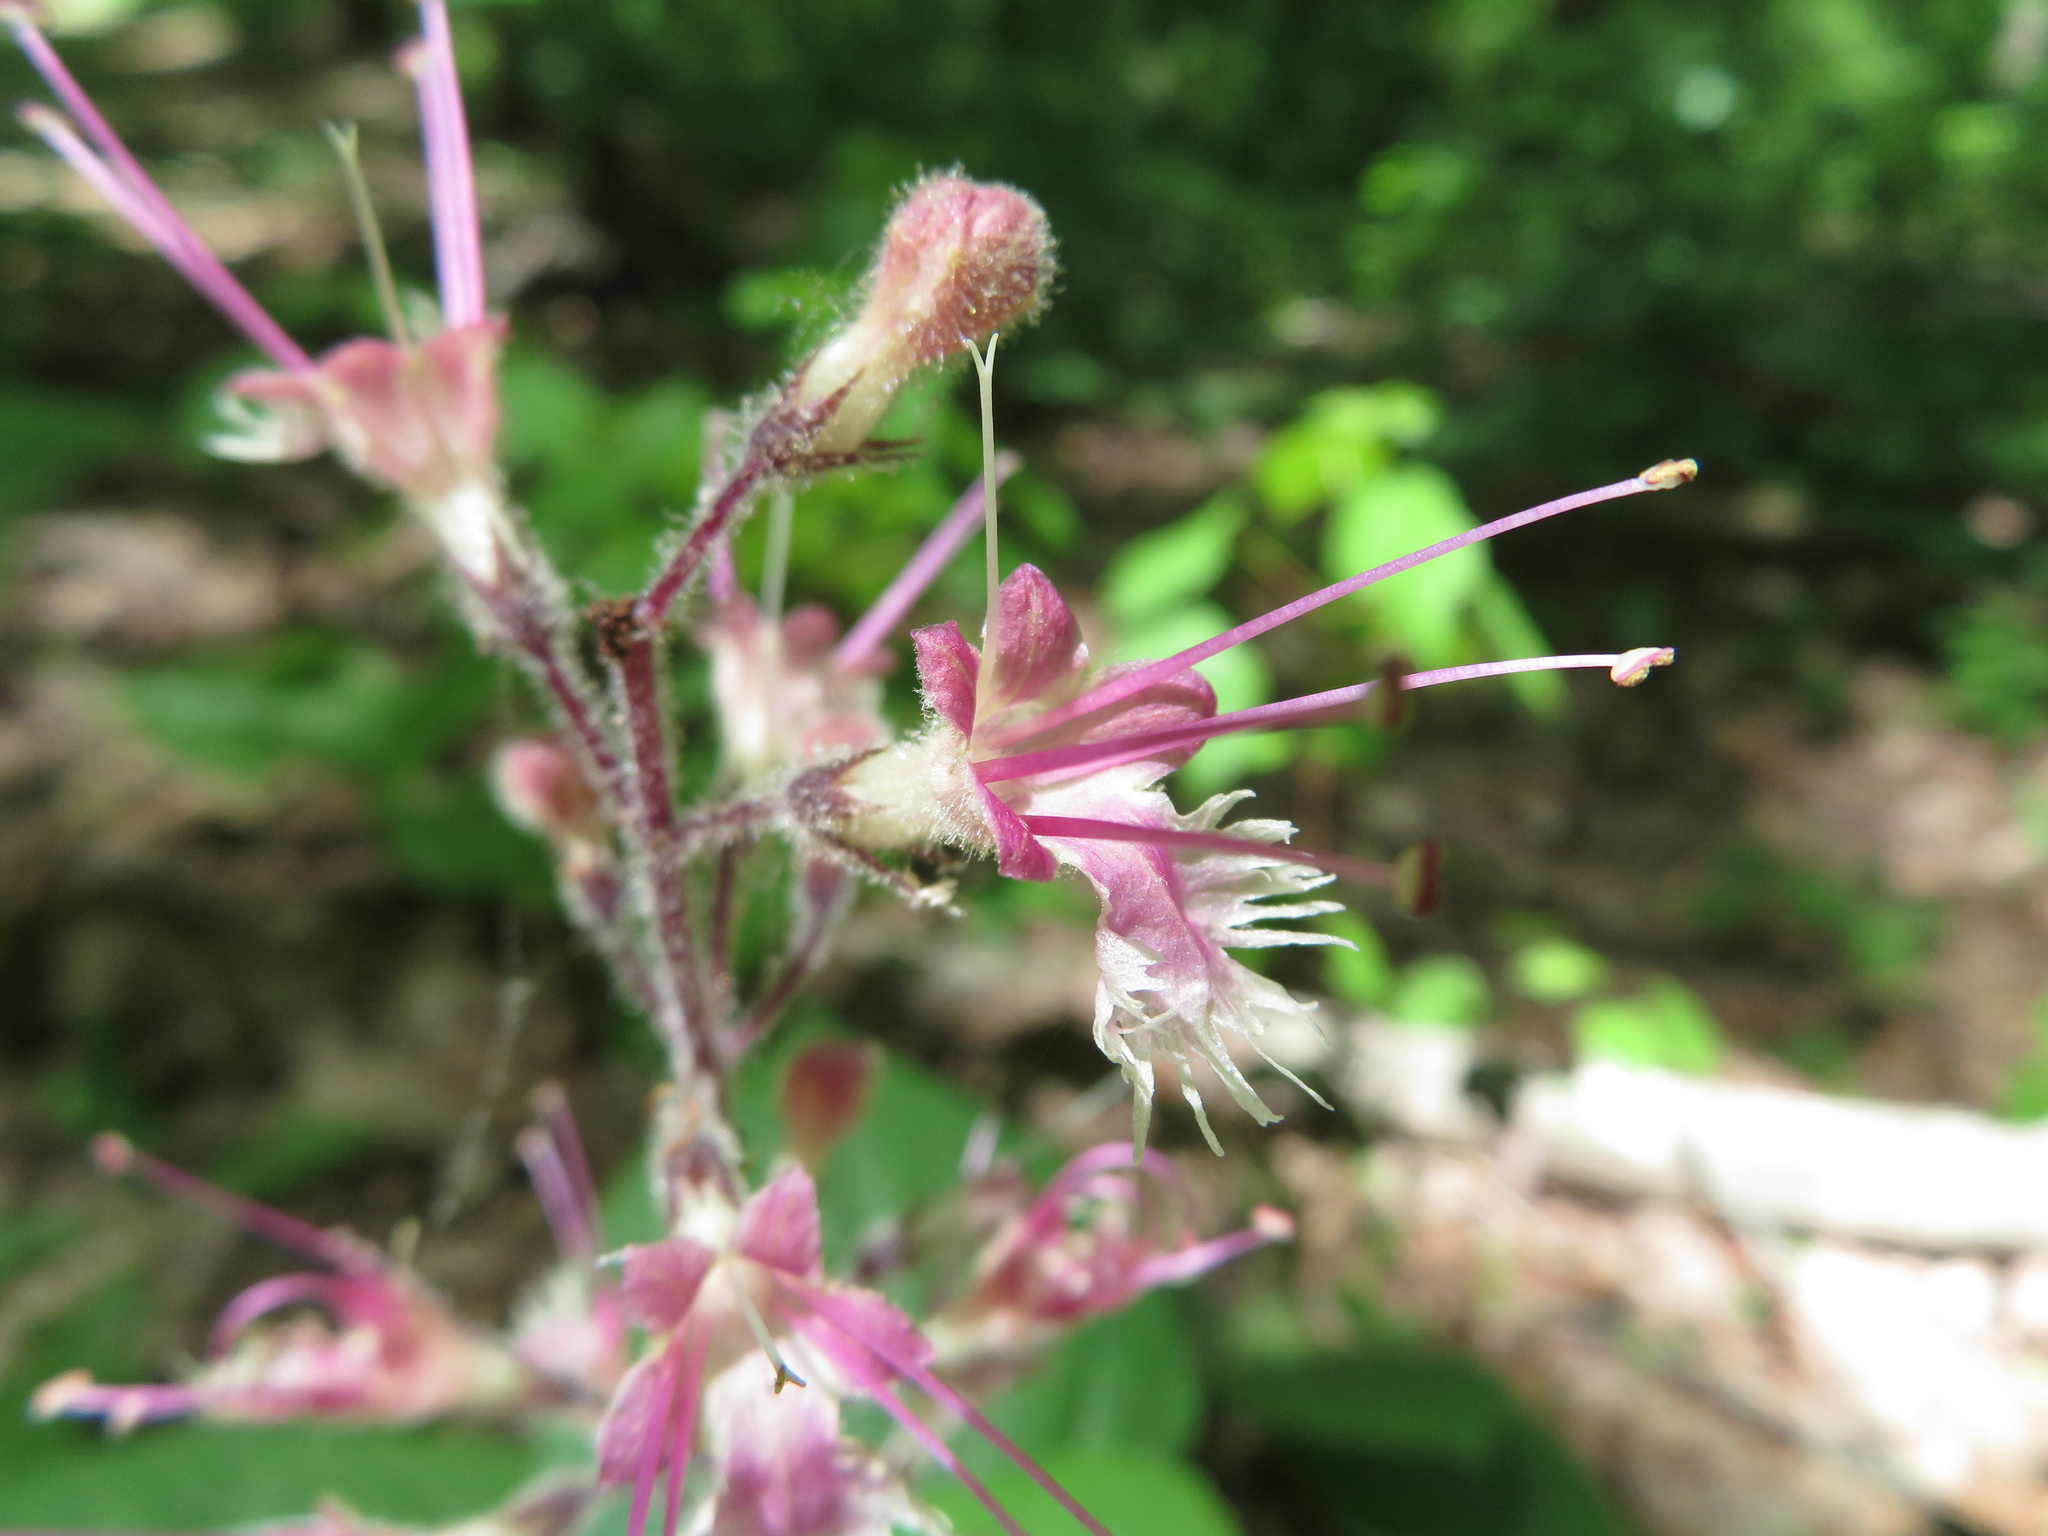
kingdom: Plantae
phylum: Tracheophyta
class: Magnoliopsida
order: Lamiales
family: Lamiaceae
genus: Collinsonia
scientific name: Collinsonia verticillata
